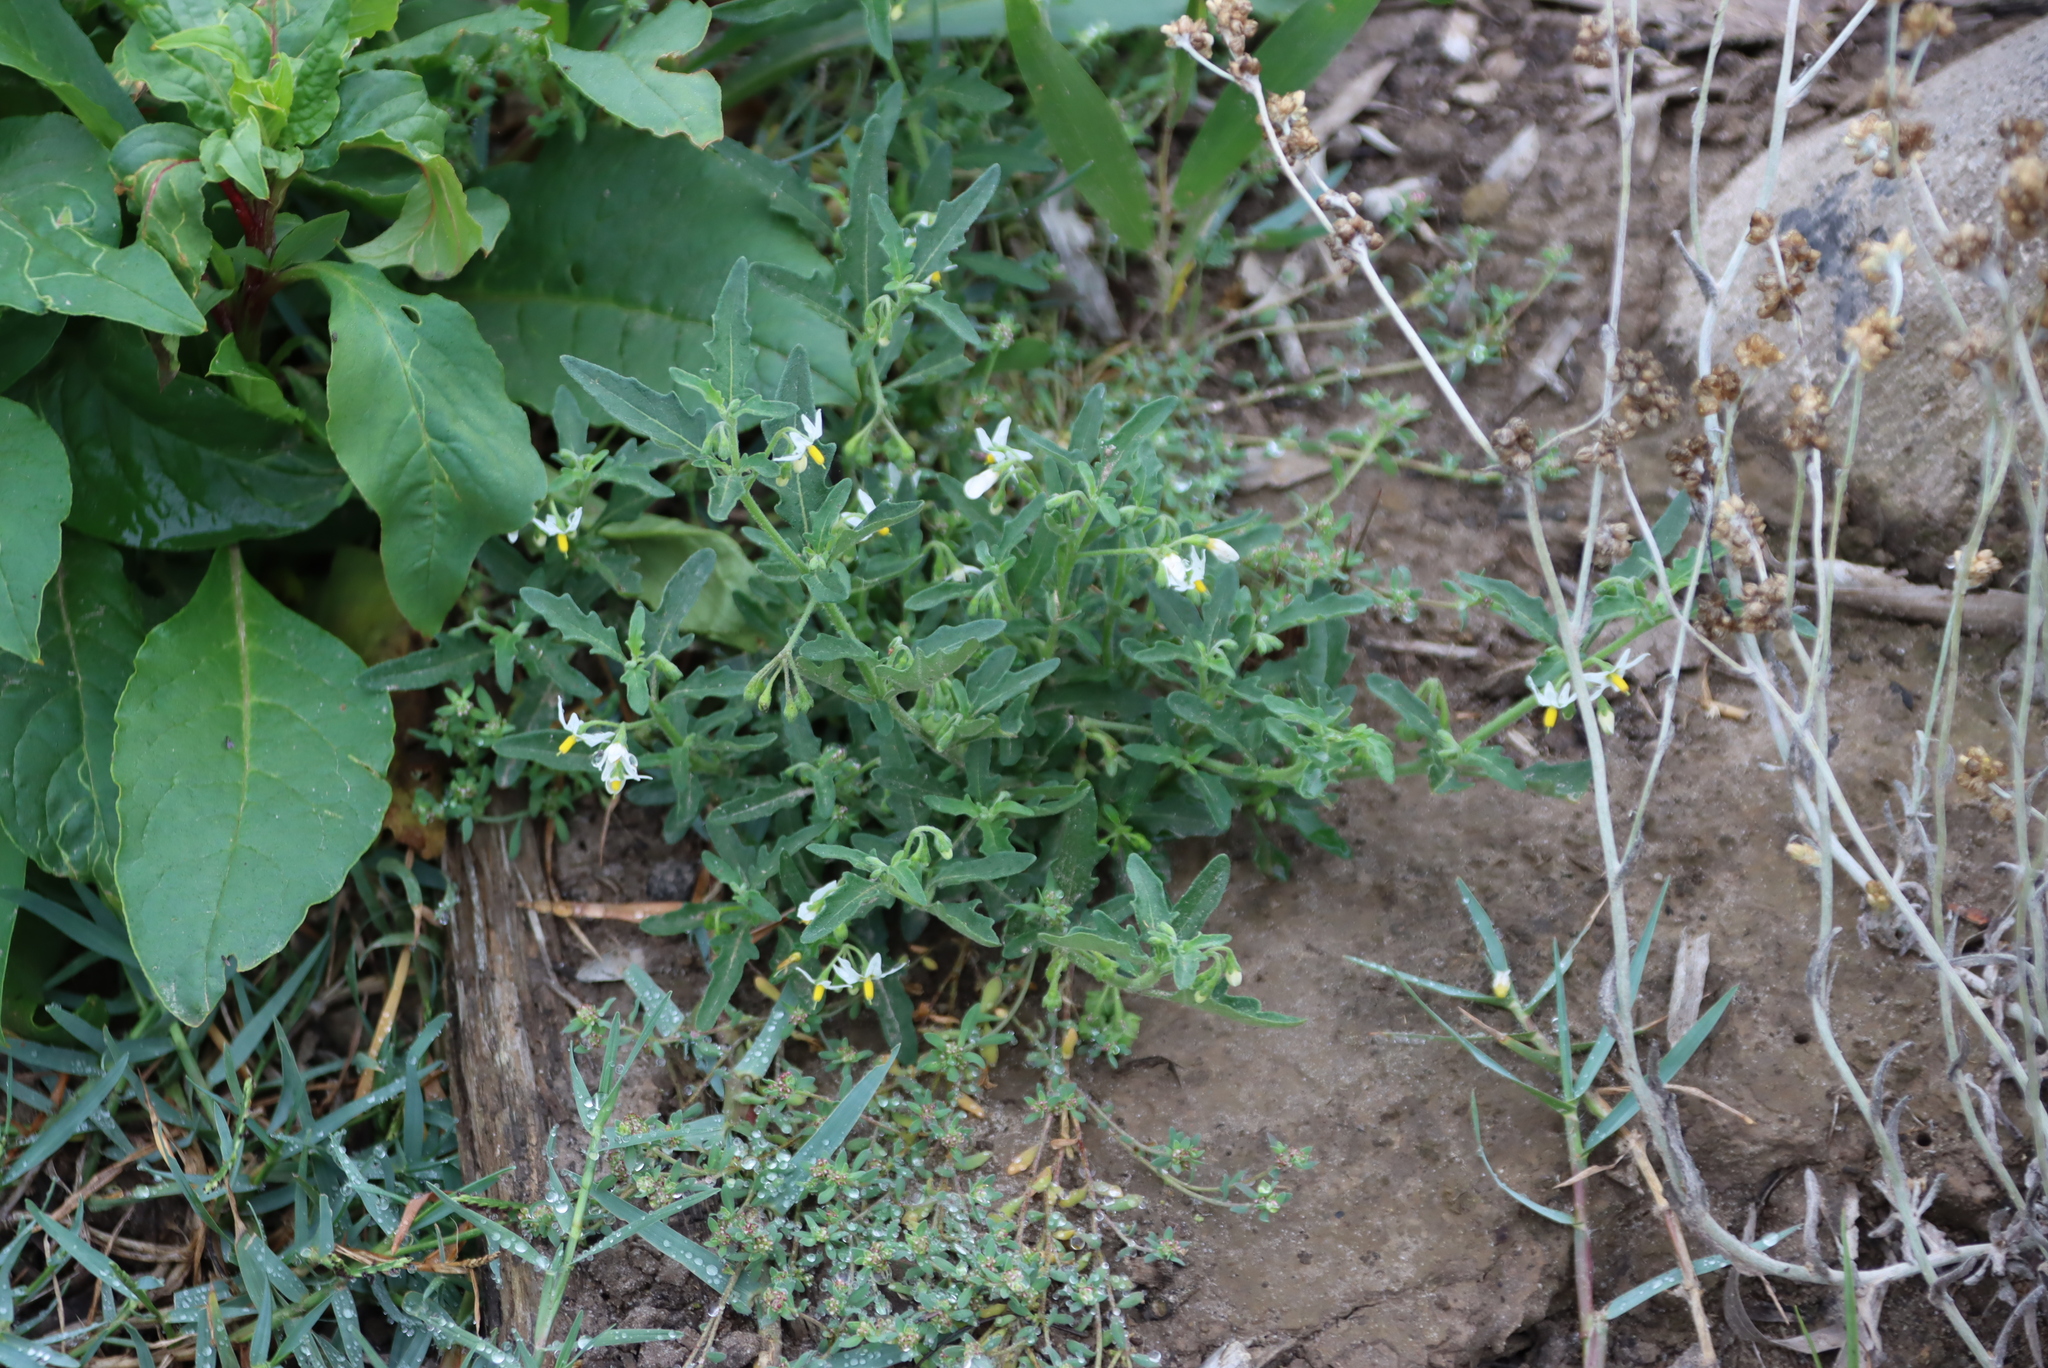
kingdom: Plantae
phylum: Tracheophyta
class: Magnoliopsida
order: Solanales
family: Solanaceae
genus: Solanum
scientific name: Solanum chenopodioides
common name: Tall nightshade
